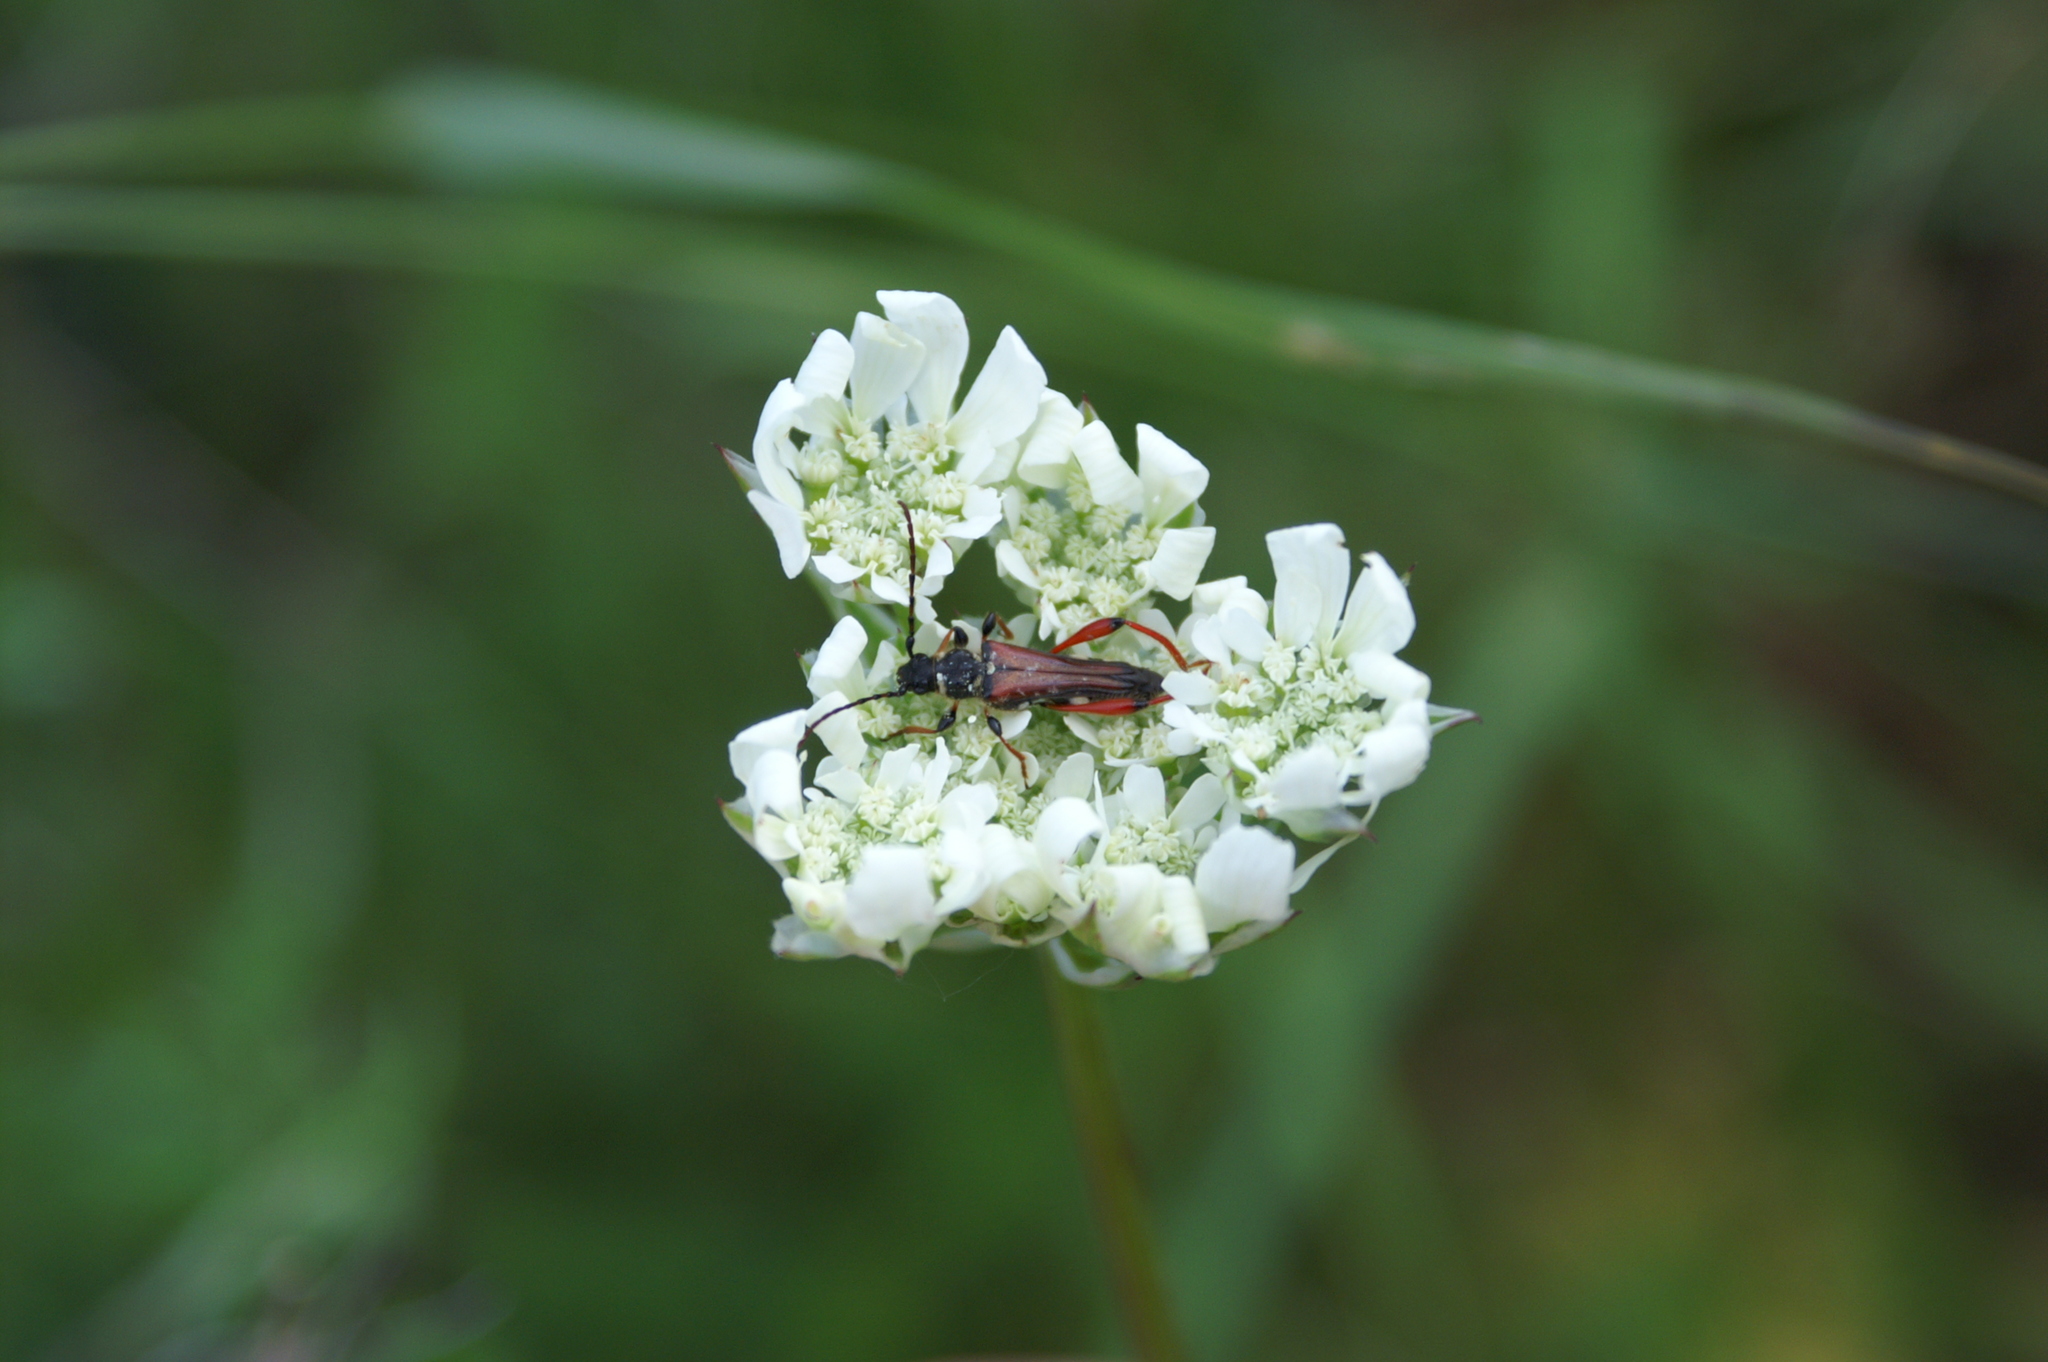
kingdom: Animalia
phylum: Arthropoda
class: Insecta
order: Coleoptera
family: Cerambycidae
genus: Stenopterus
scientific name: Stenopterus rufus
